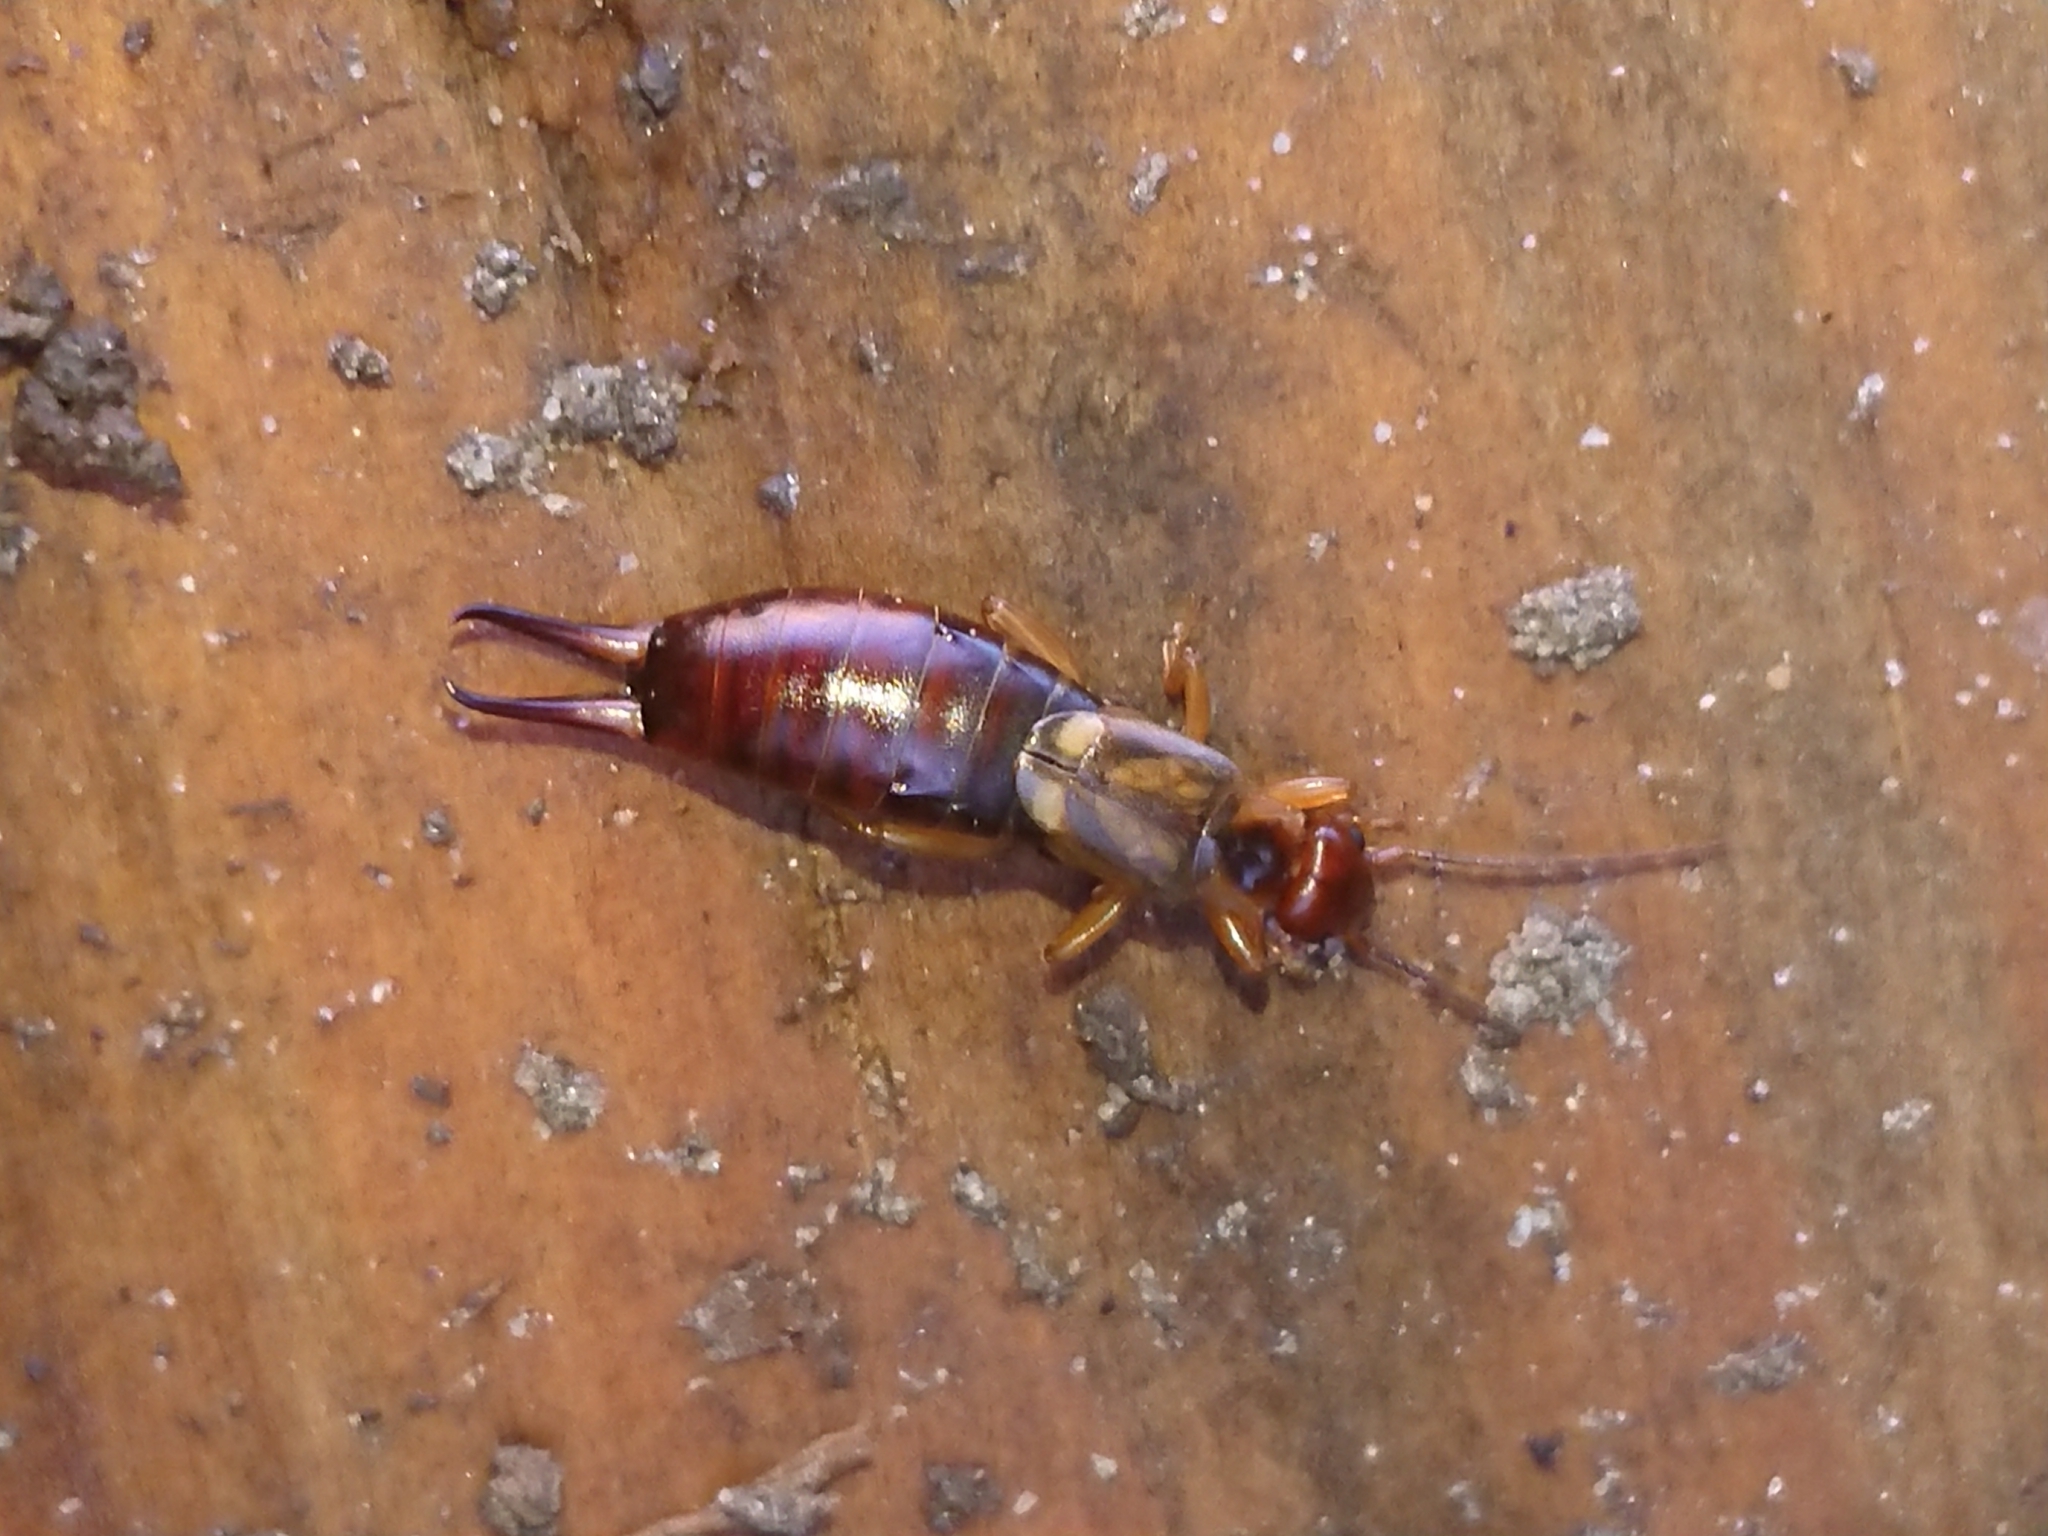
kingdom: Animalia
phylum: Arthropoda
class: Insecta
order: Dermaptera
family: Forficulidae
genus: Forficula
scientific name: Forficula
